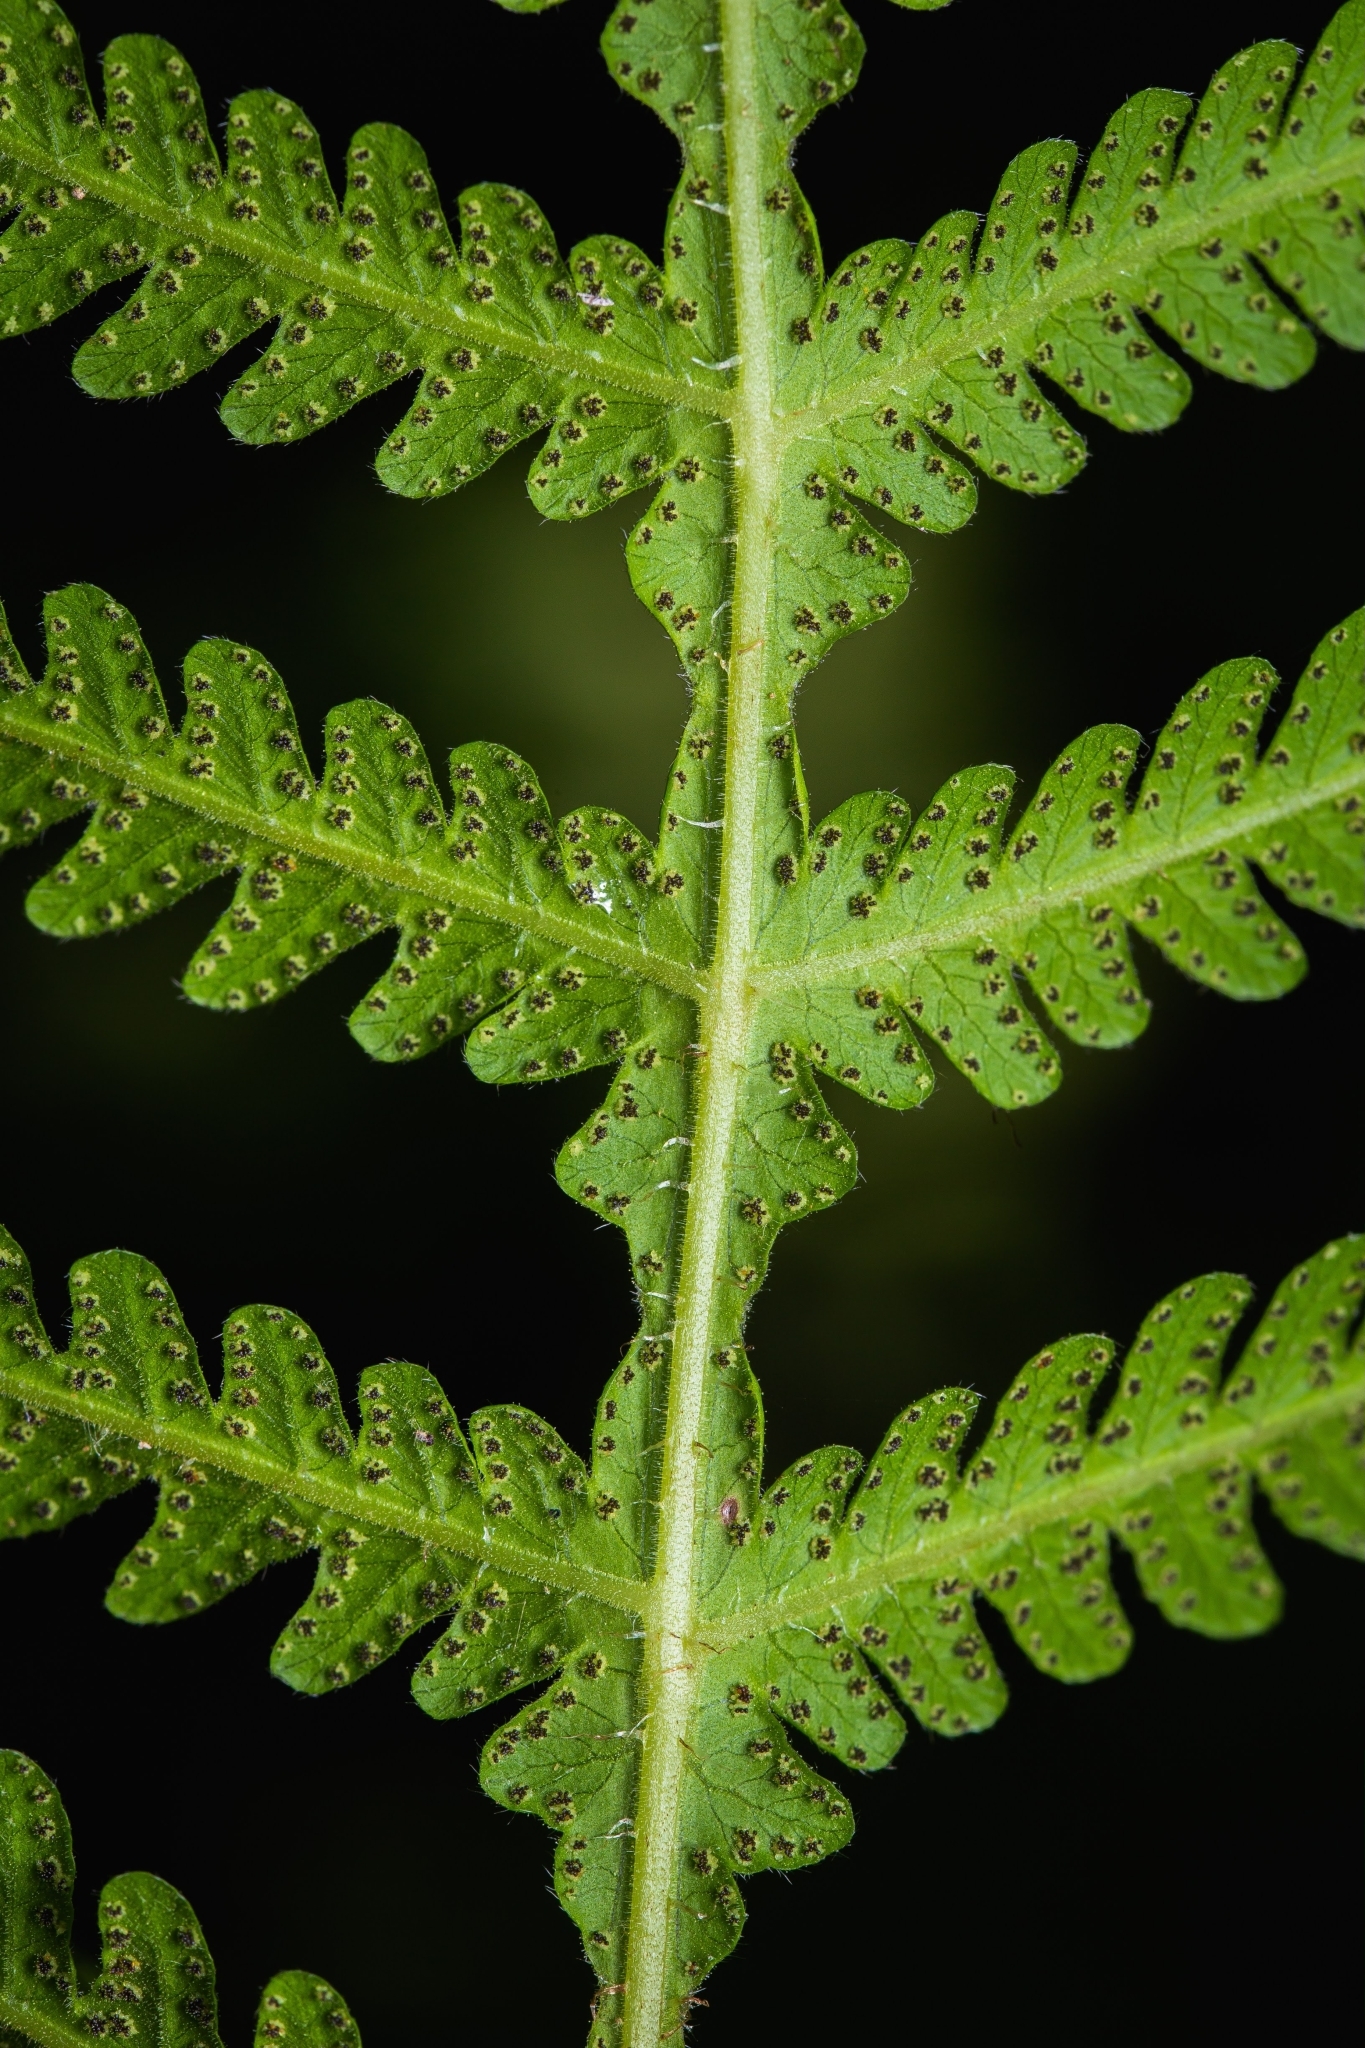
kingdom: Plantae
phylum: Tracheophyta
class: Polypodiopsida
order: Polypodiales
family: Thelypteridaceae
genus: Phegopteris
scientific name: Phegopteris hexagonoptera
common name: Broad beech fern
